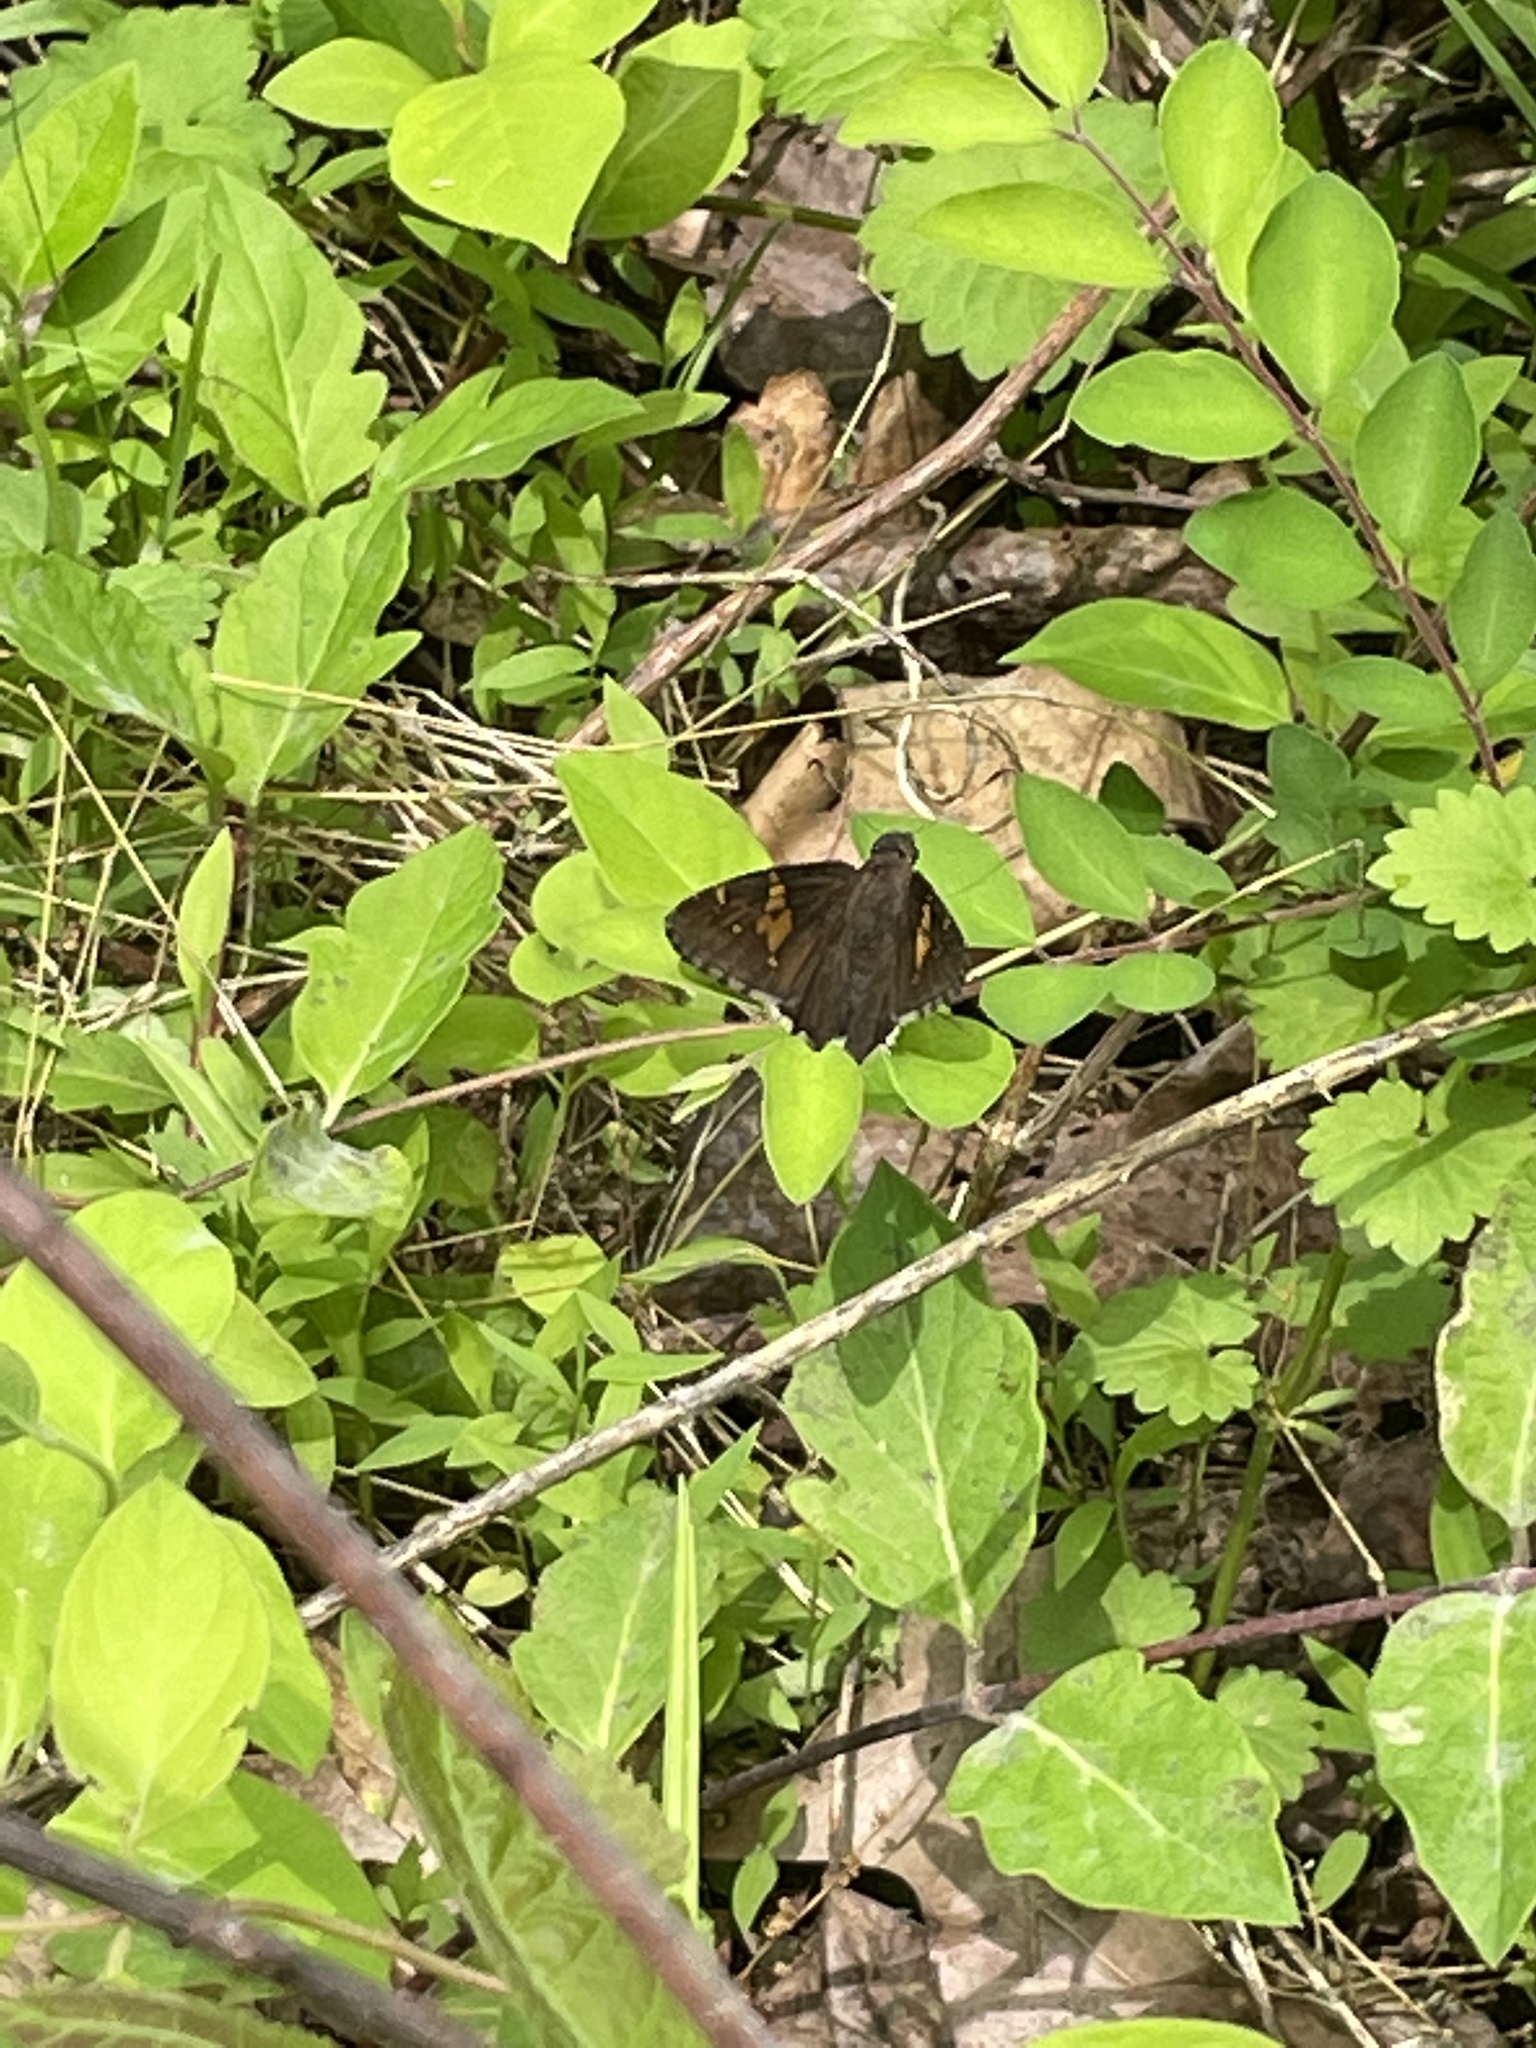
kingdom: Animalia
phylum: Arthropoda
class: Insecta
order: Lepidoptera
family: Hesperiidae
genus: Thorybes
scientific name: Thorybes lyciades
